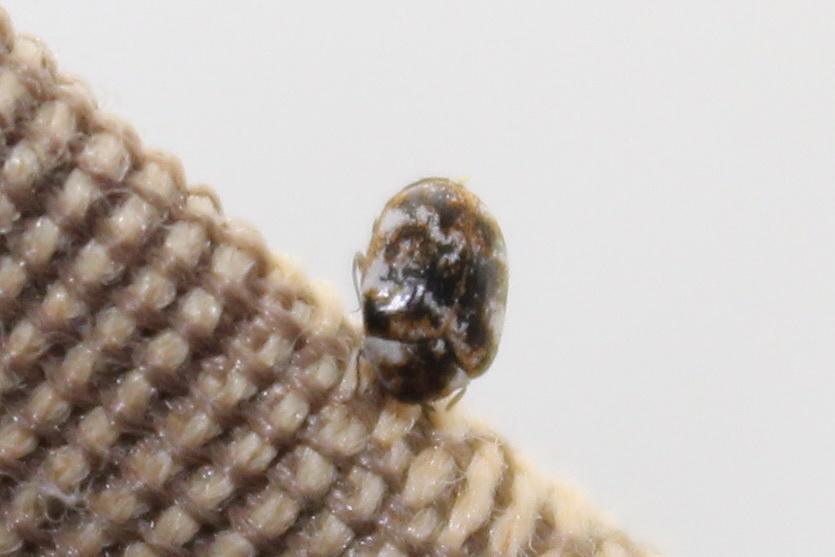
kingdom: Animalia
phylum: Arthropoda
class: Insecta
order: Coleoptera
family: Dermestidae
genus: Anthrenus
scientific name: Anthrenus verbasci
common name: Varied carpet beetle
